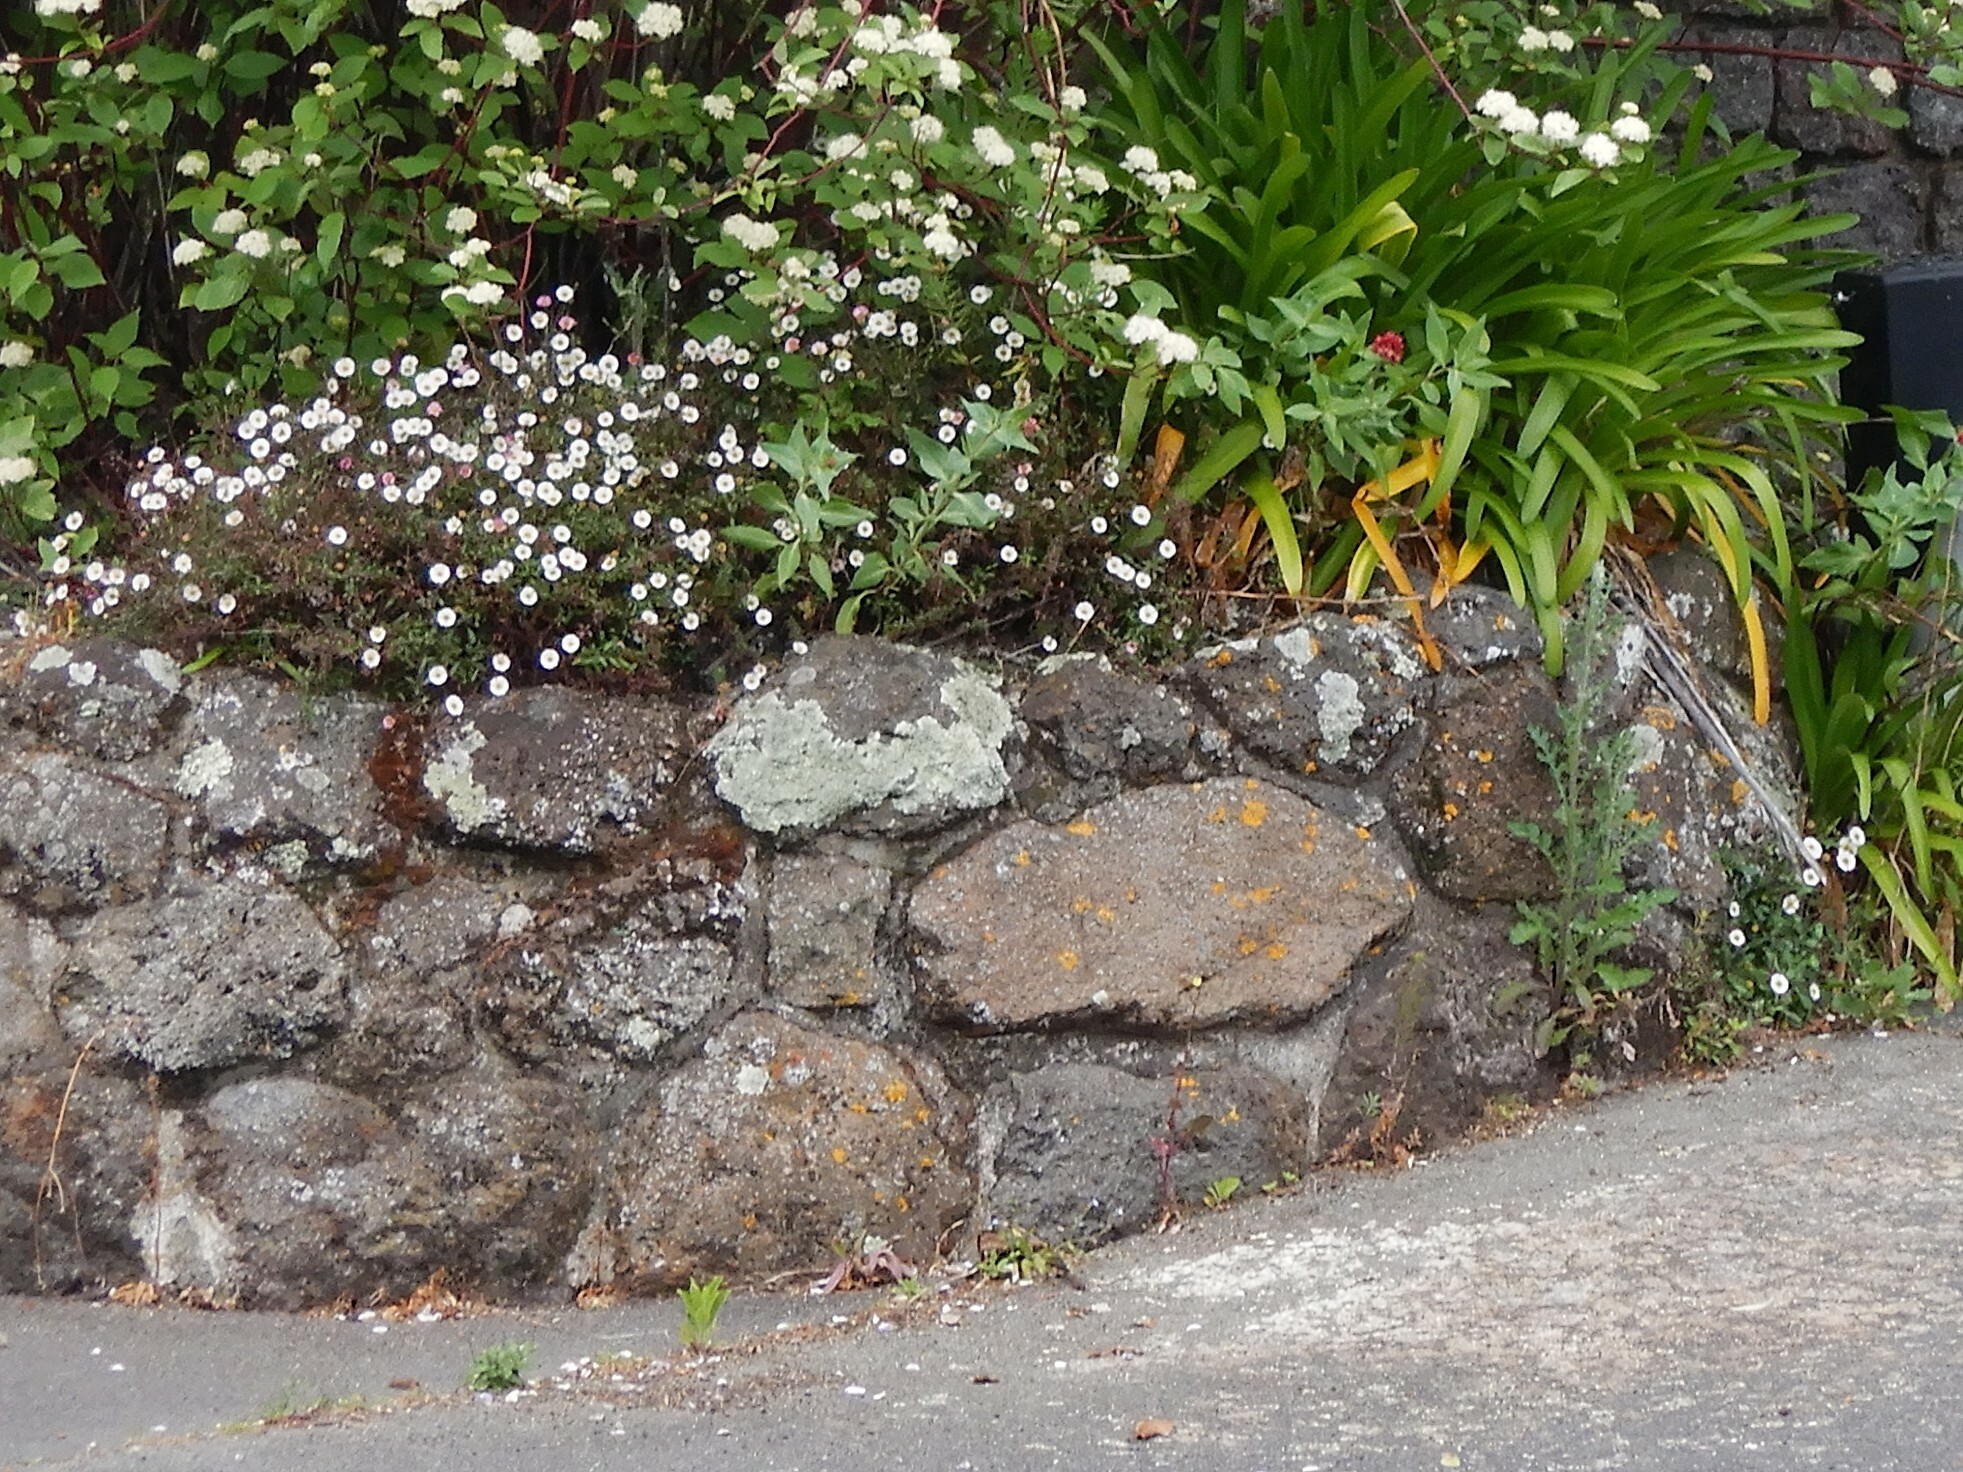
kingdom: Plantae
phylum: Tracheophyta
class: Magnoliopsida
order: Asterales
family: Asteraceae
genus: Erigeron
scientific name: Erigeron karvinskianus
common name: Mexican fleabane
